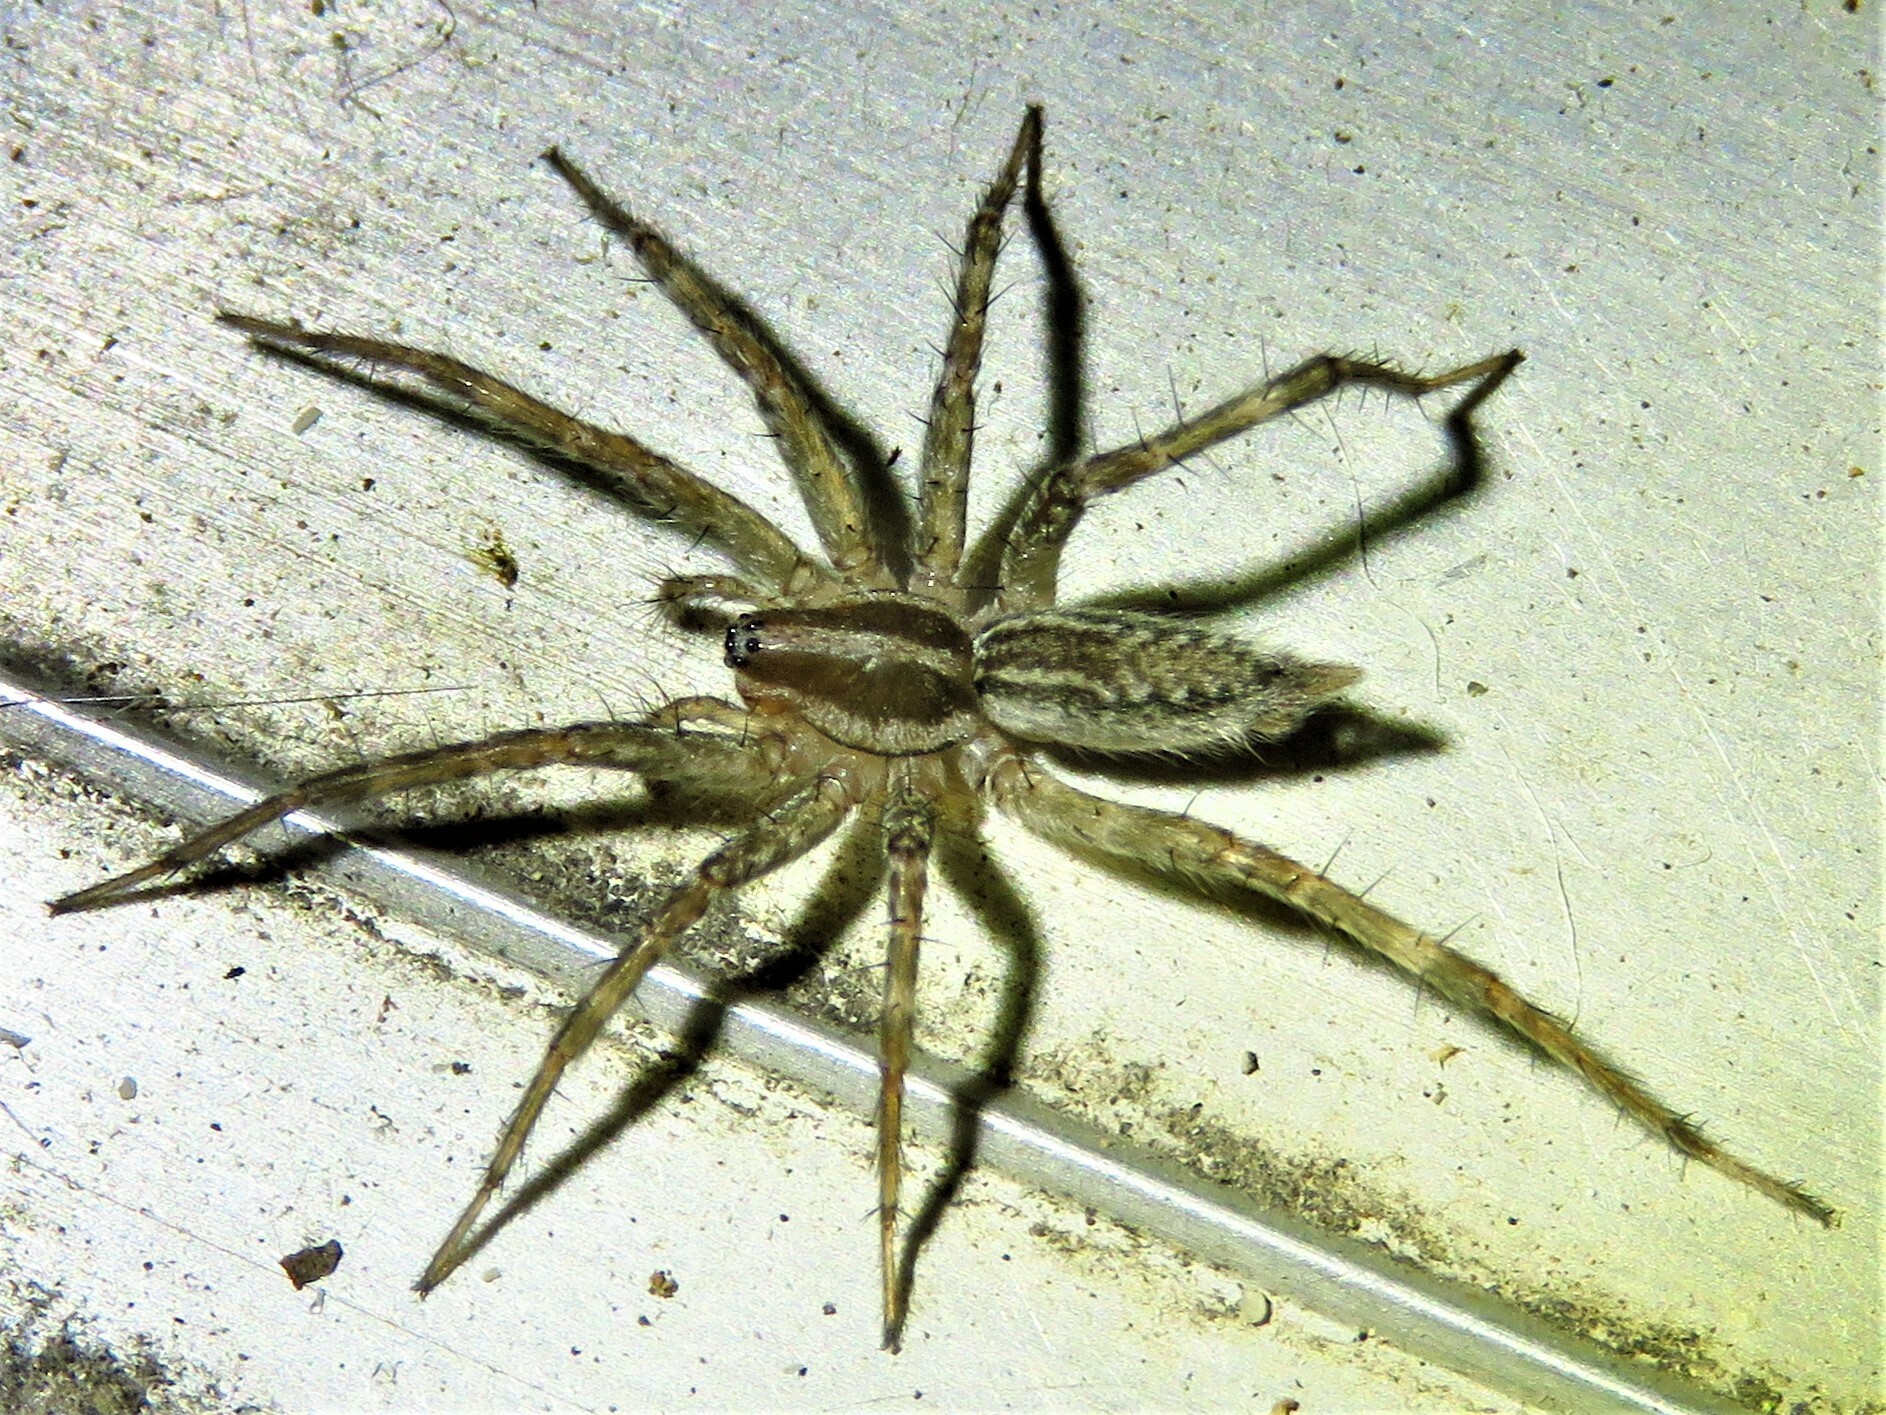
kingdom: Animalia
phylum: Arthropoda
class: Arachnida
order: Araneae
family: Agelenidae
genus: Agelenopsis
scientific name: Agelenopsis
